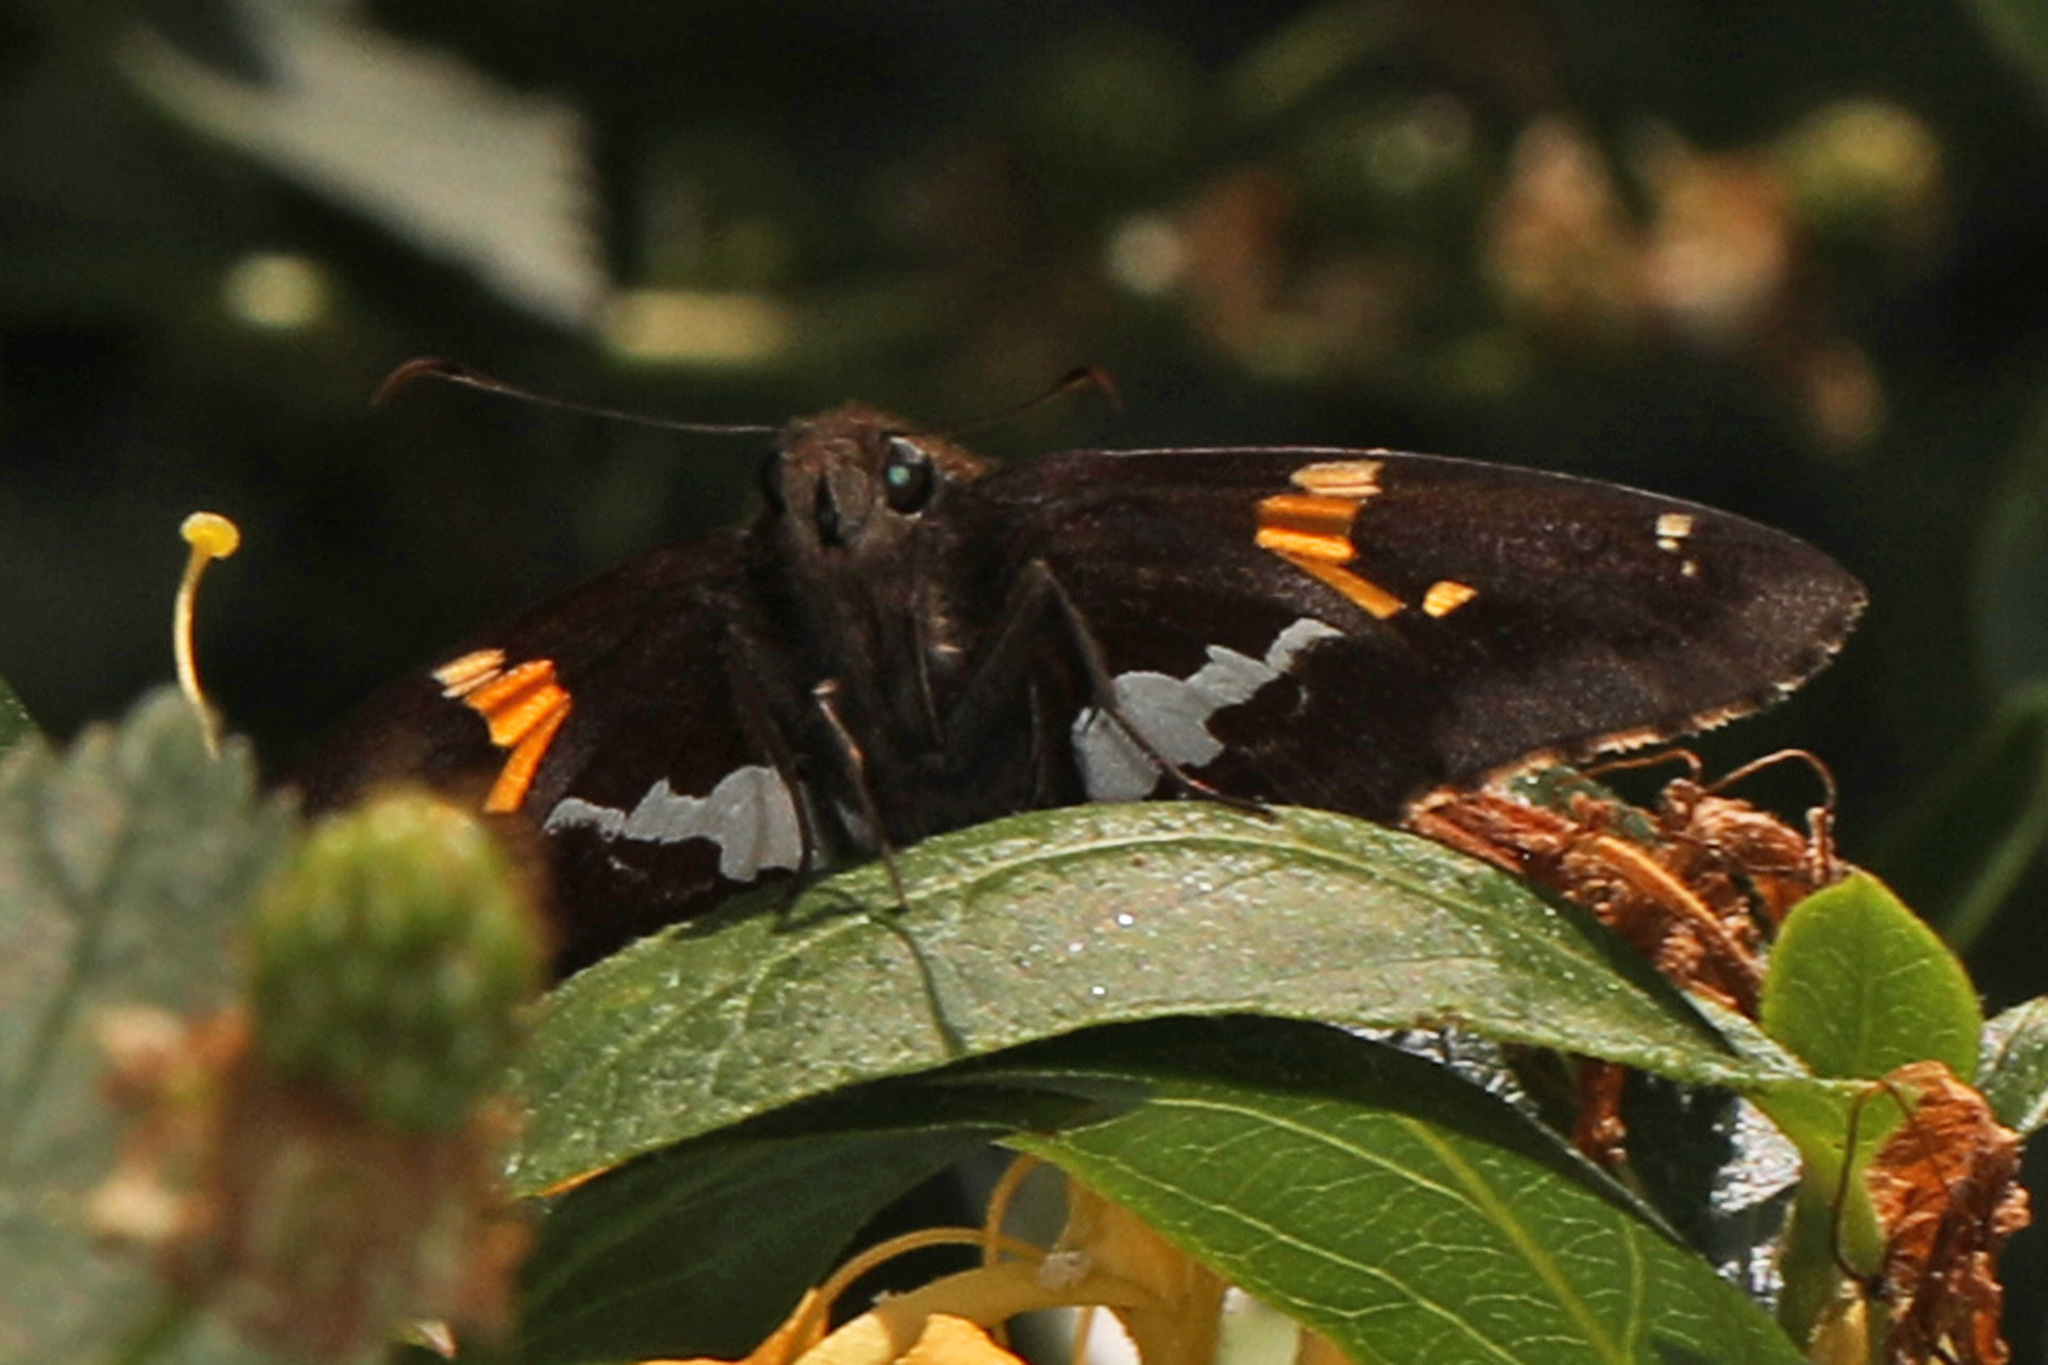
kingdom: Animalia
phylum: Arthropoda
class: Insecta
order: Lepidoptera
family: Hesperiidae
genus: Epargyreus
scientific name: Epargyreus clarus
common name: Silver-spotted skipper
